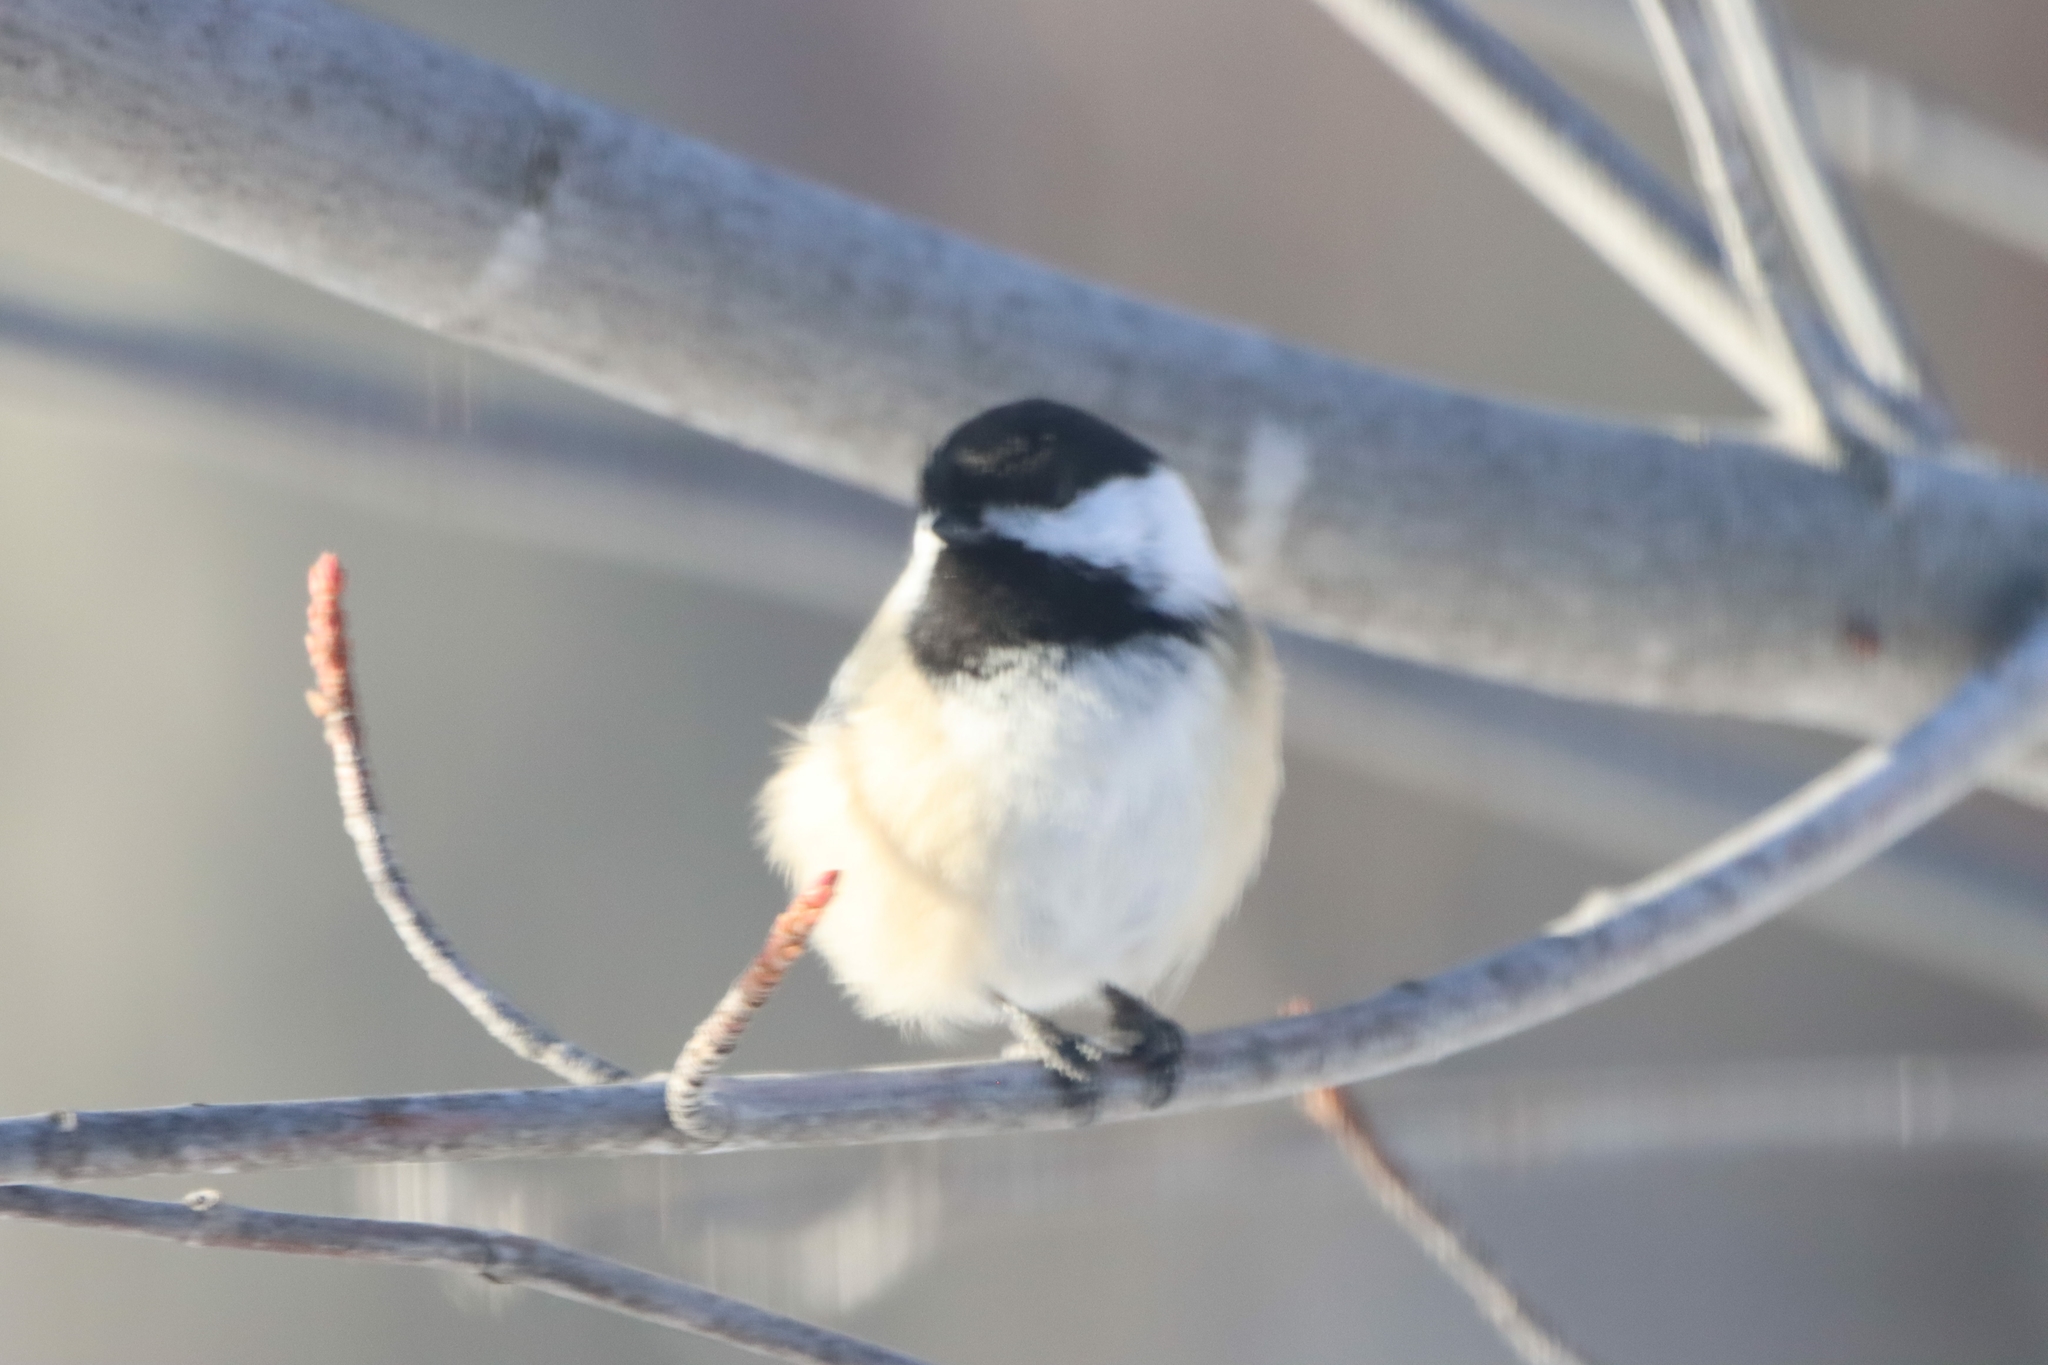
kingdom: Animalia
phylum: Chordata
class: Aves
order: Passeriformes
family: Paridae
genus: Poecile
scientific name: Poecile atricapillus
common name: Black-capped chickadee
